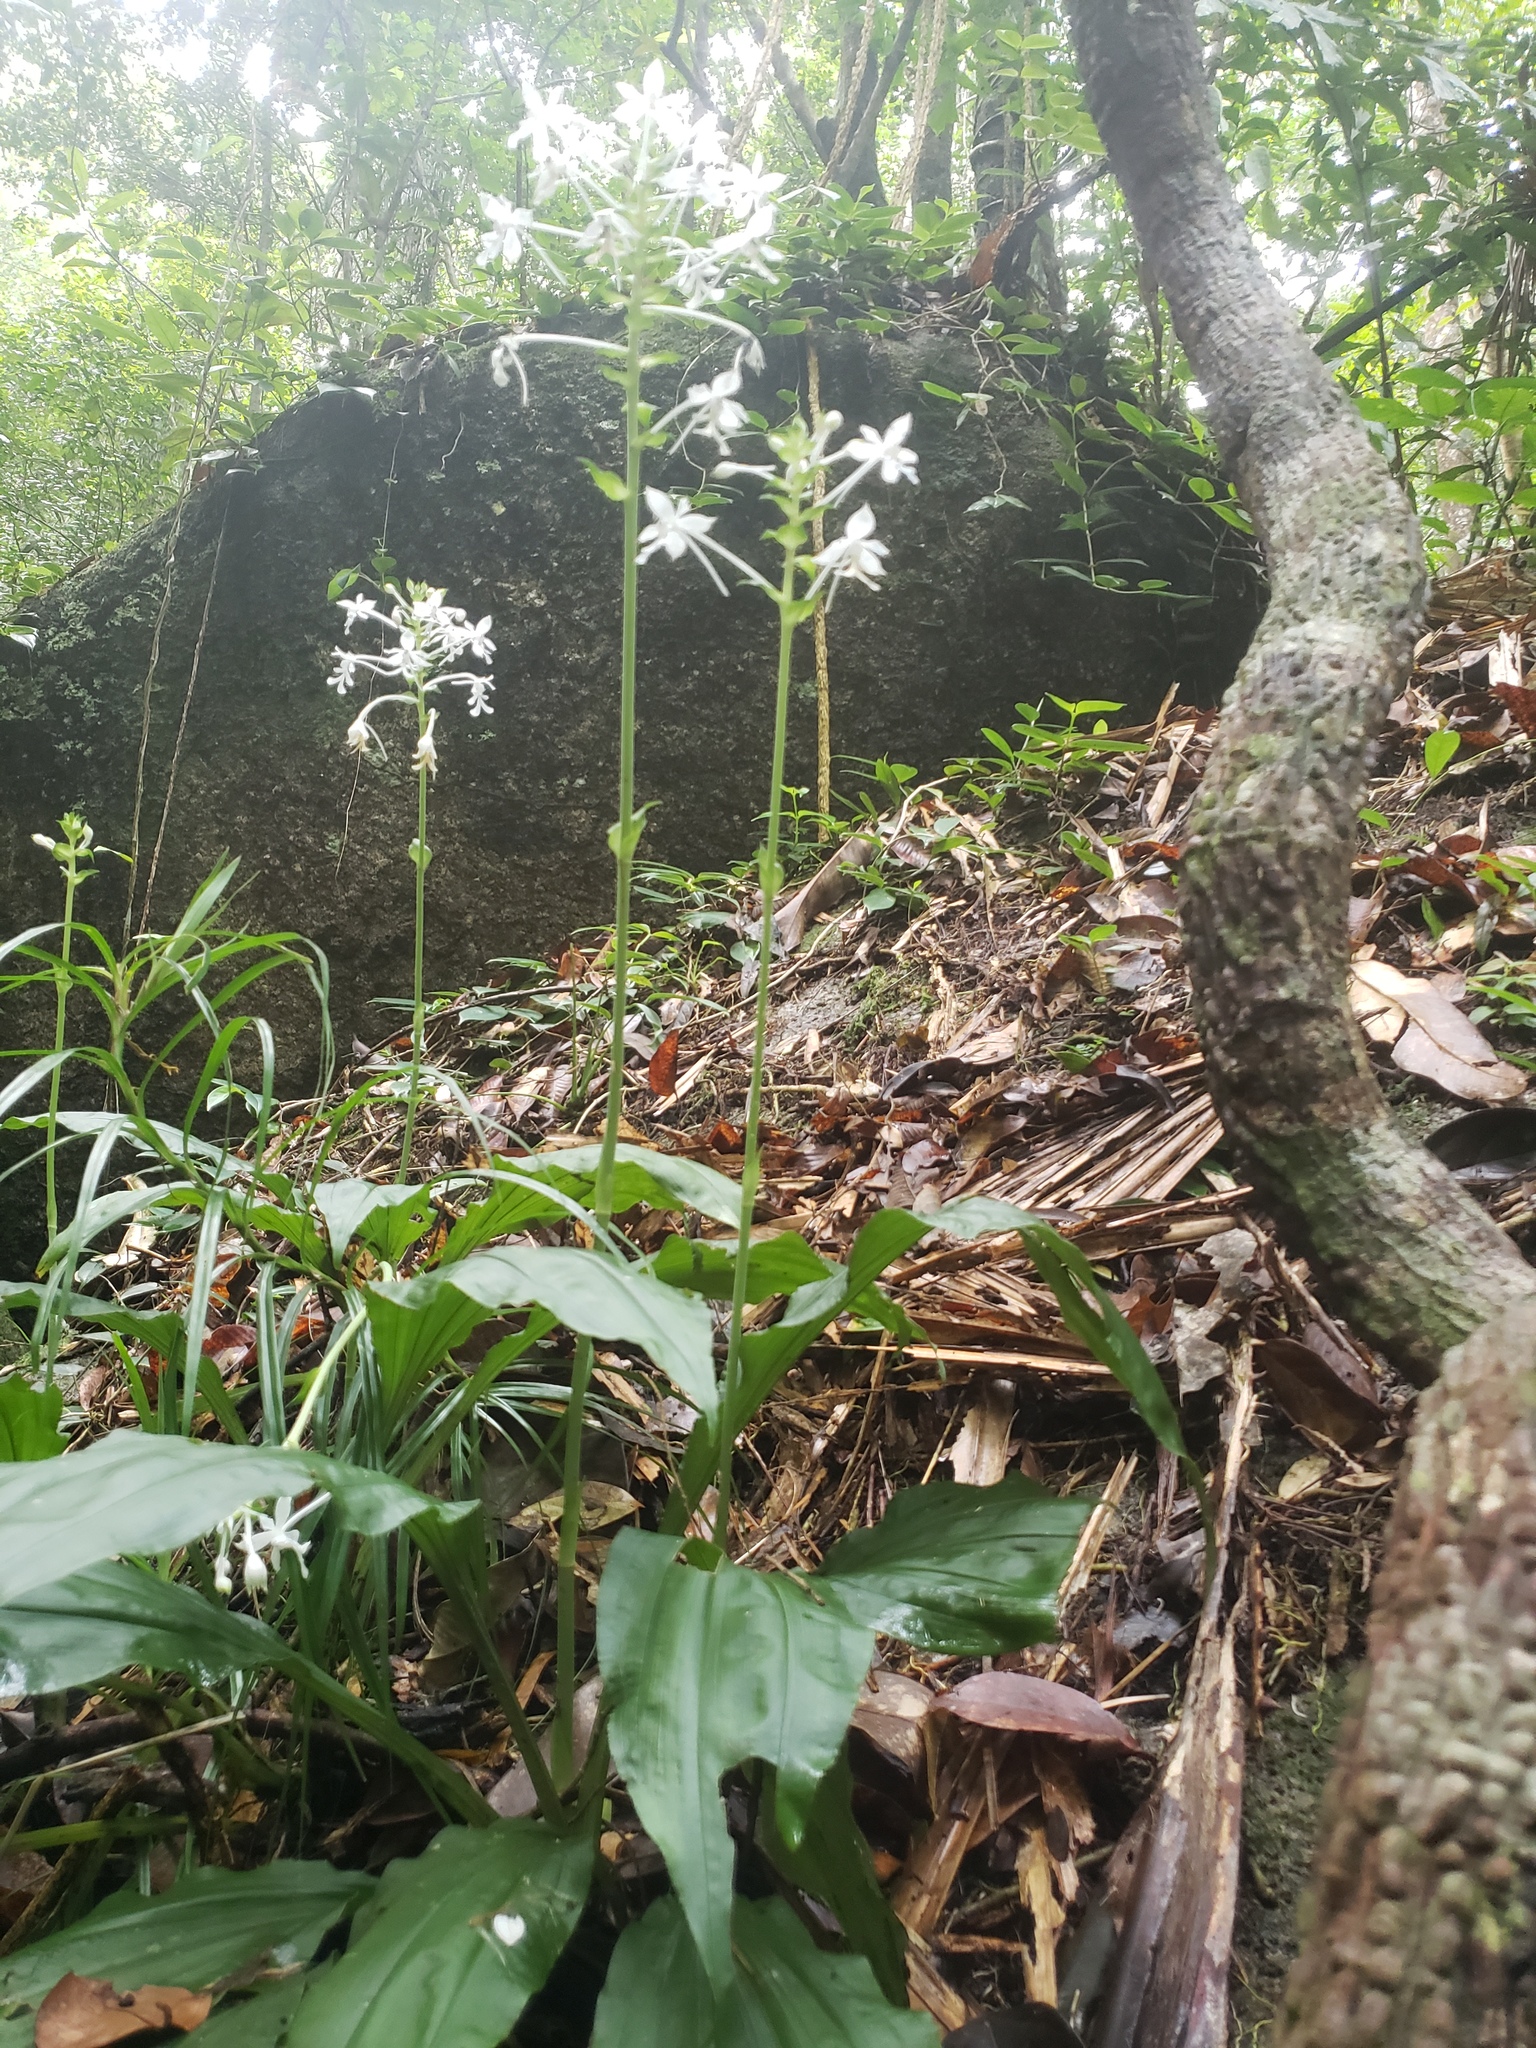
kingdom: Plantae
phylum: Tracheophyta
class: Liliopsida
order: Asparagales
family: Orchidaceae
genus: Calanthe
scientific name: Calanthe triplicata
